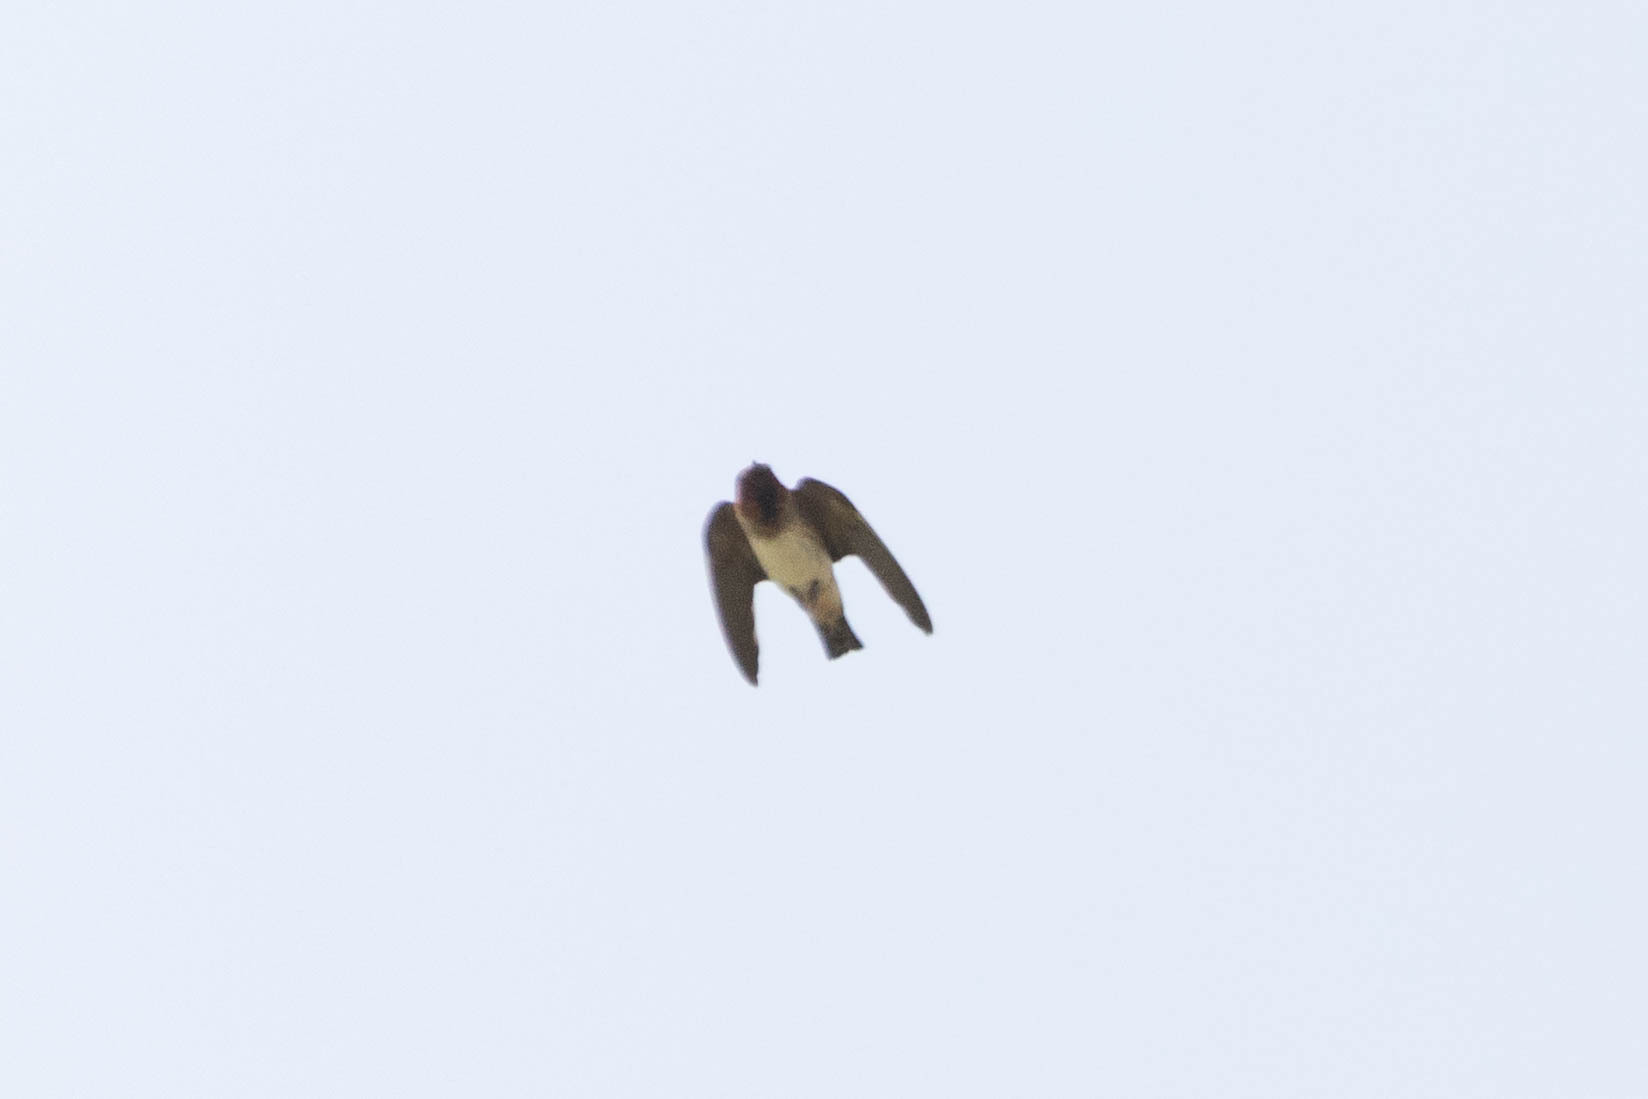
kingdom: Animalia
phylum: Chordata
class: Aves
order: Passeriformes
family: Hirundinidae
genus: Petrochelidon
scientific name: Petrochelidon pyrrhonota
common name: American cliff swallow
